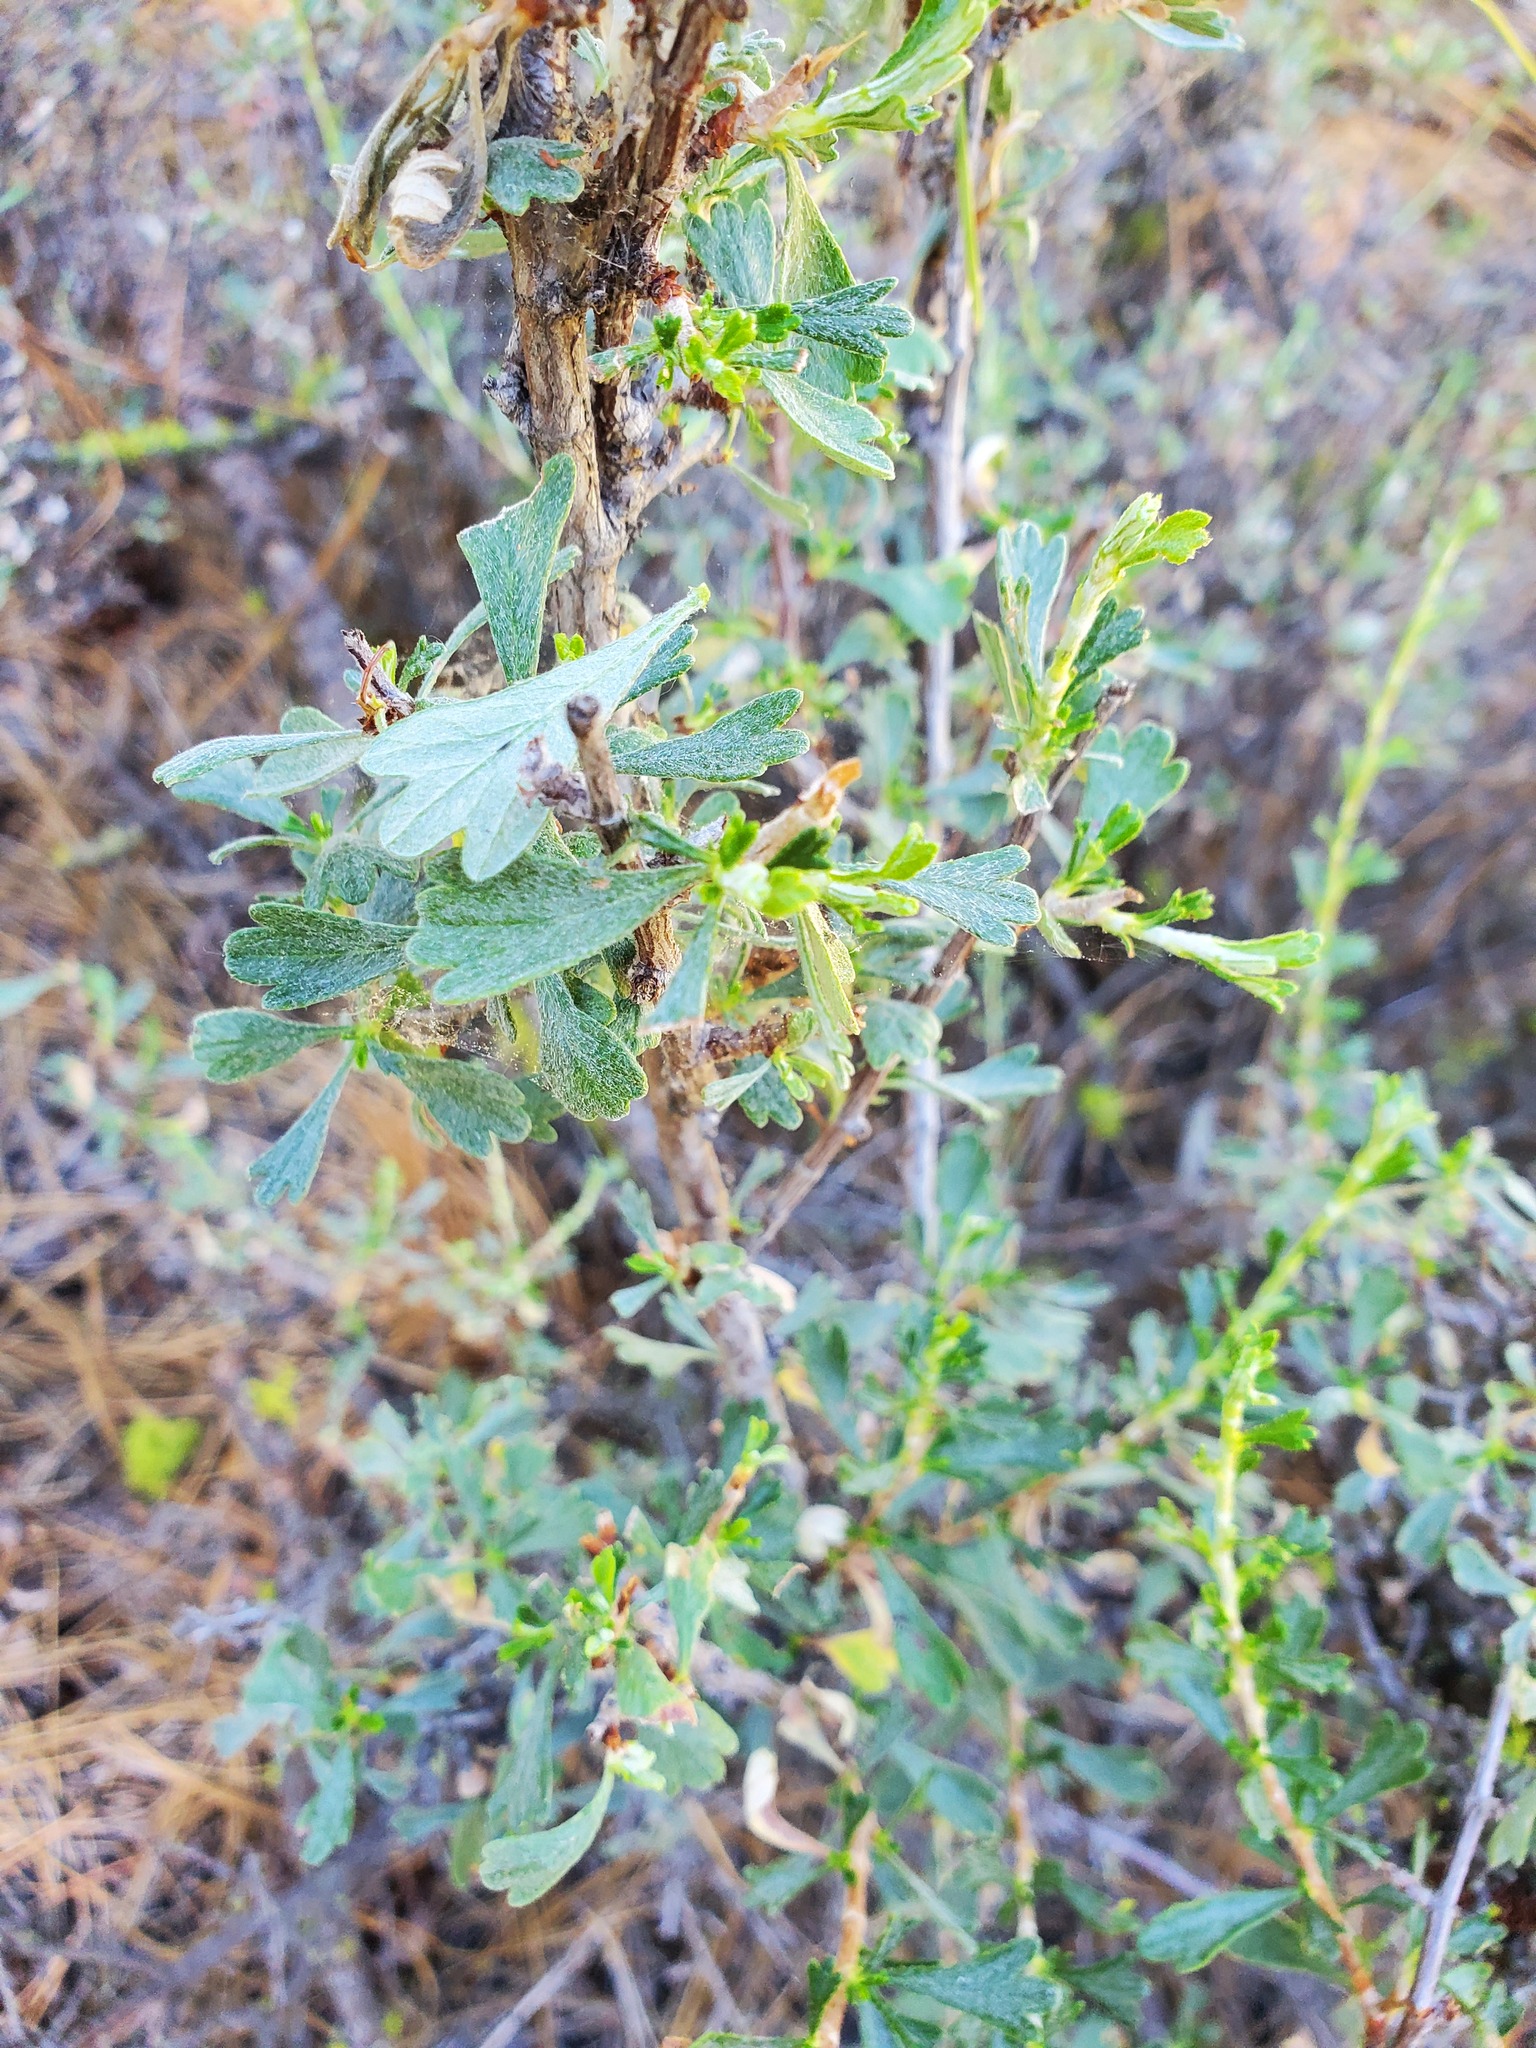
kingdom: Plantae
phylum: Tracheophyta
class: Magnoliopsida
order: Rosales
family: Rosaceae
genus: Purshia
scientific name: Purshia tridentata
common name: Antelope bitterbrush
